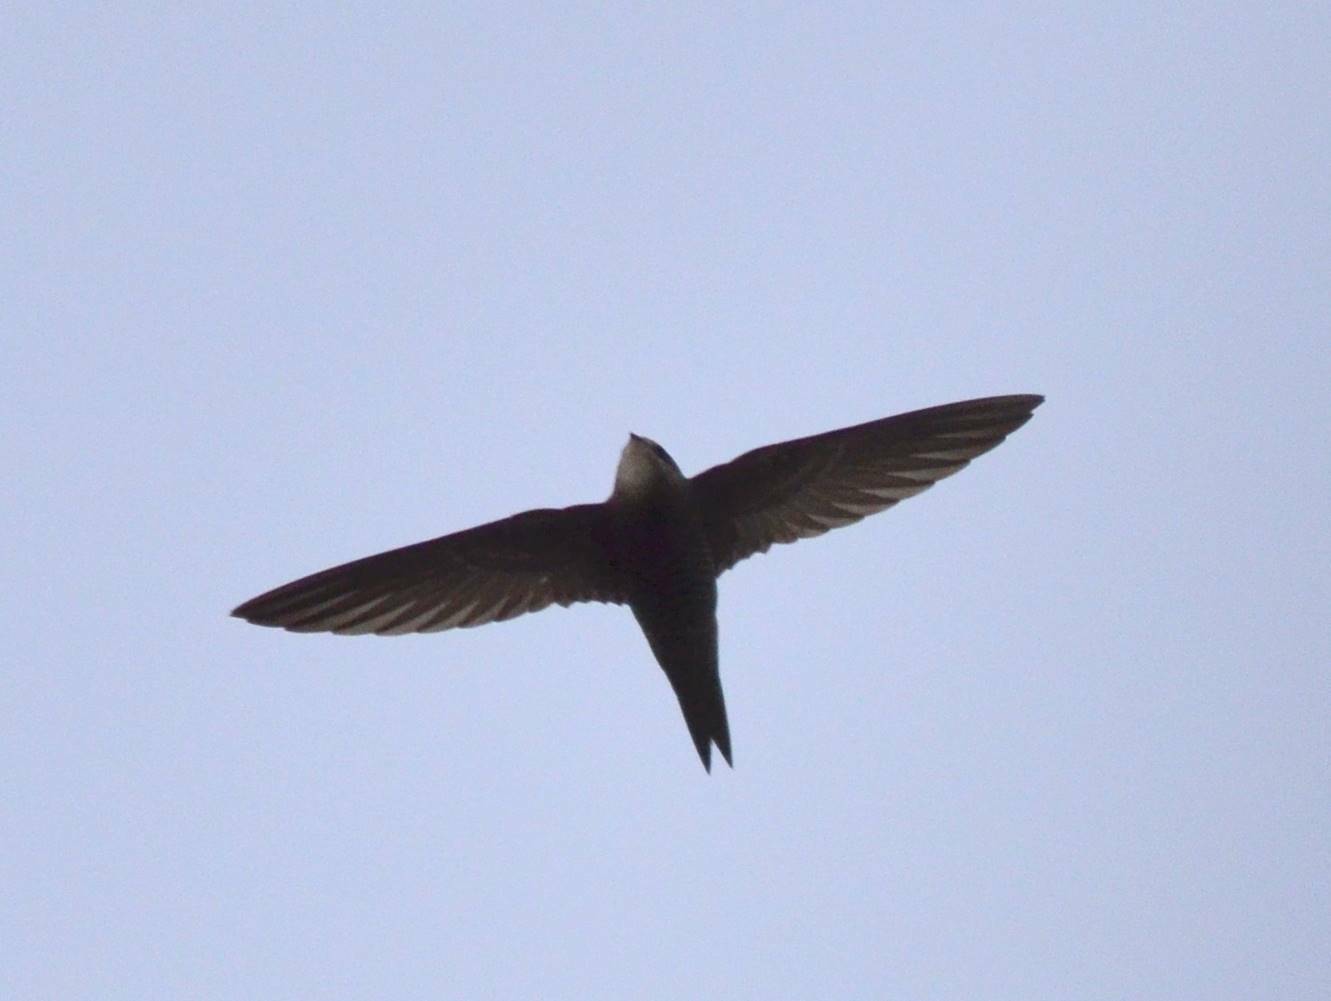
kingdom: Animalia
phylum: Chordata
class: Aves
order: Apodiformes
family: Apodidae
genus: Apus
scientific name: Apus pallidus
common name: Pallid swift
